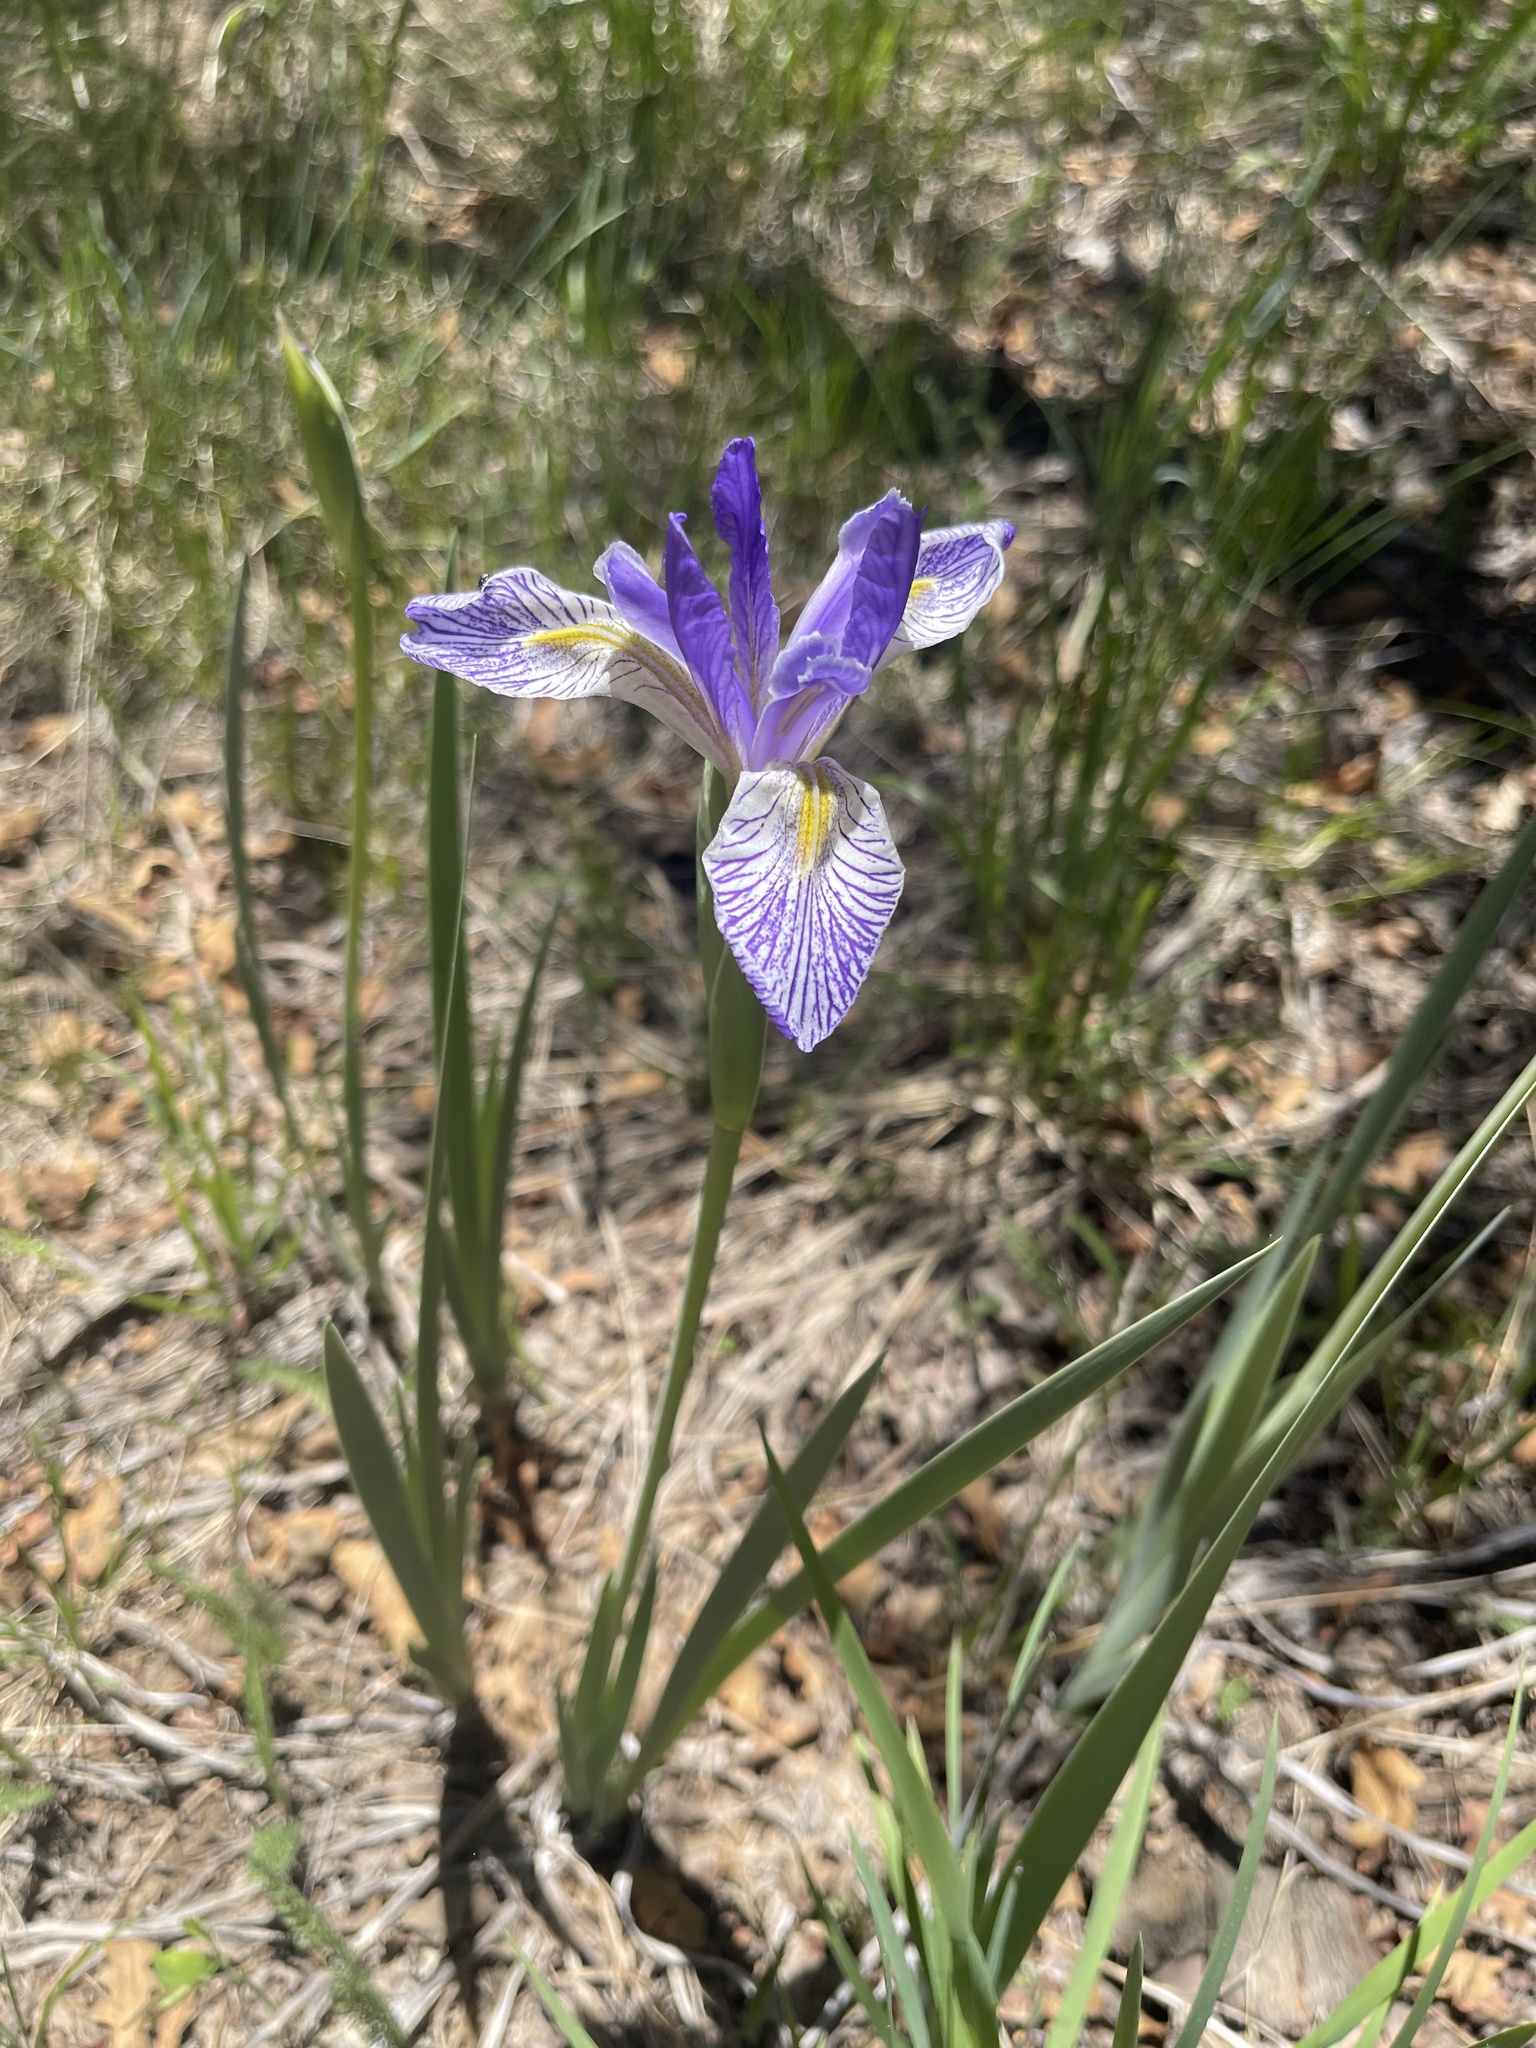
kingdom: Plantae
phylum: Tracheophyta
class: Liliopsida
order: Asparagales
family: Iridaceae
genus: Iris
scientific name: Iris missouriensis
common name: Rocky mountain iris
